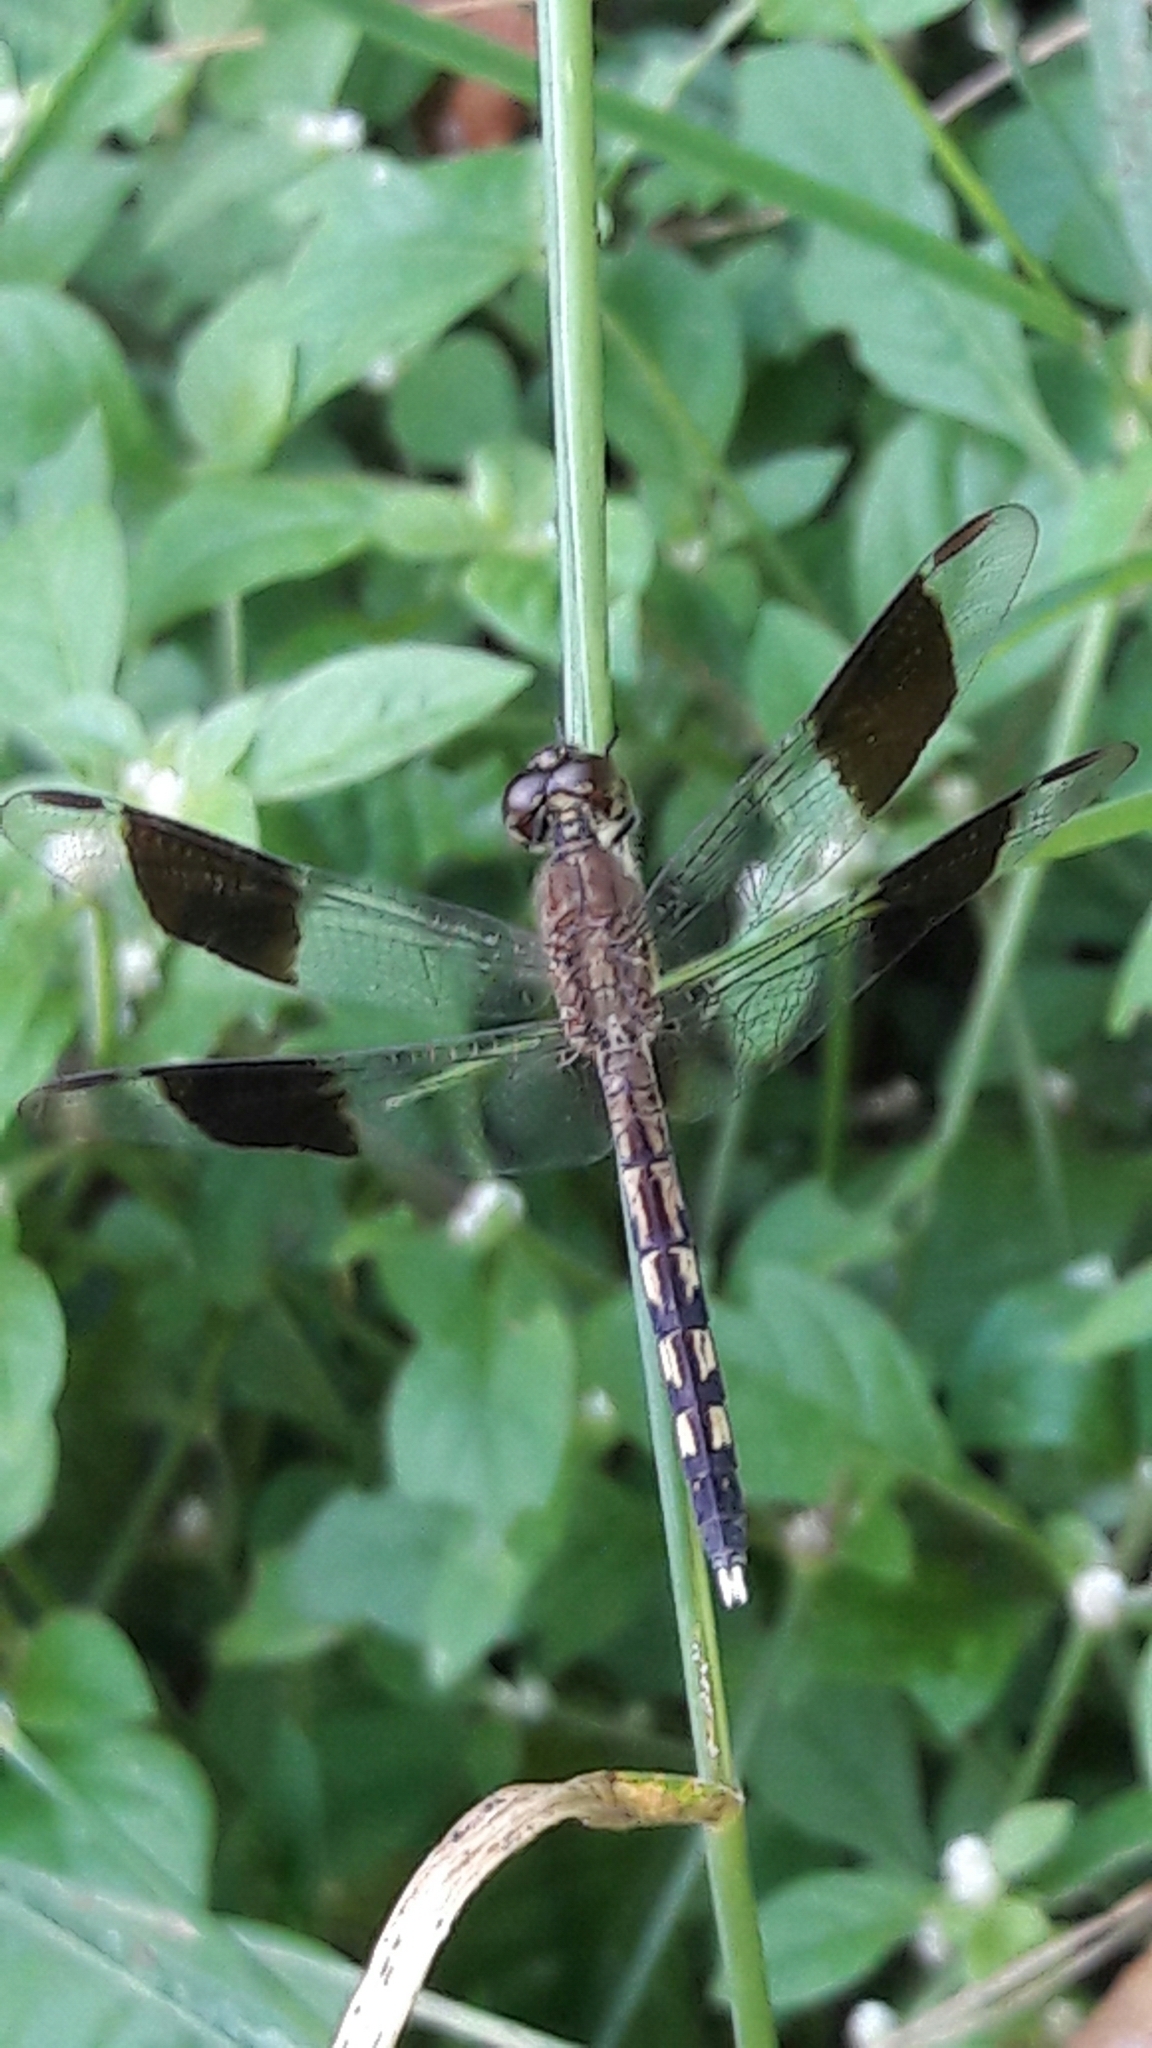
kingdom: Animalia
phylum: Arthropoda
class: Insecta
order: Odonata
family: Libellulidae
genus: Erythrodiplax
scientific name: Erythrodiplax umbrata
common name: Band-winged dragonlet
